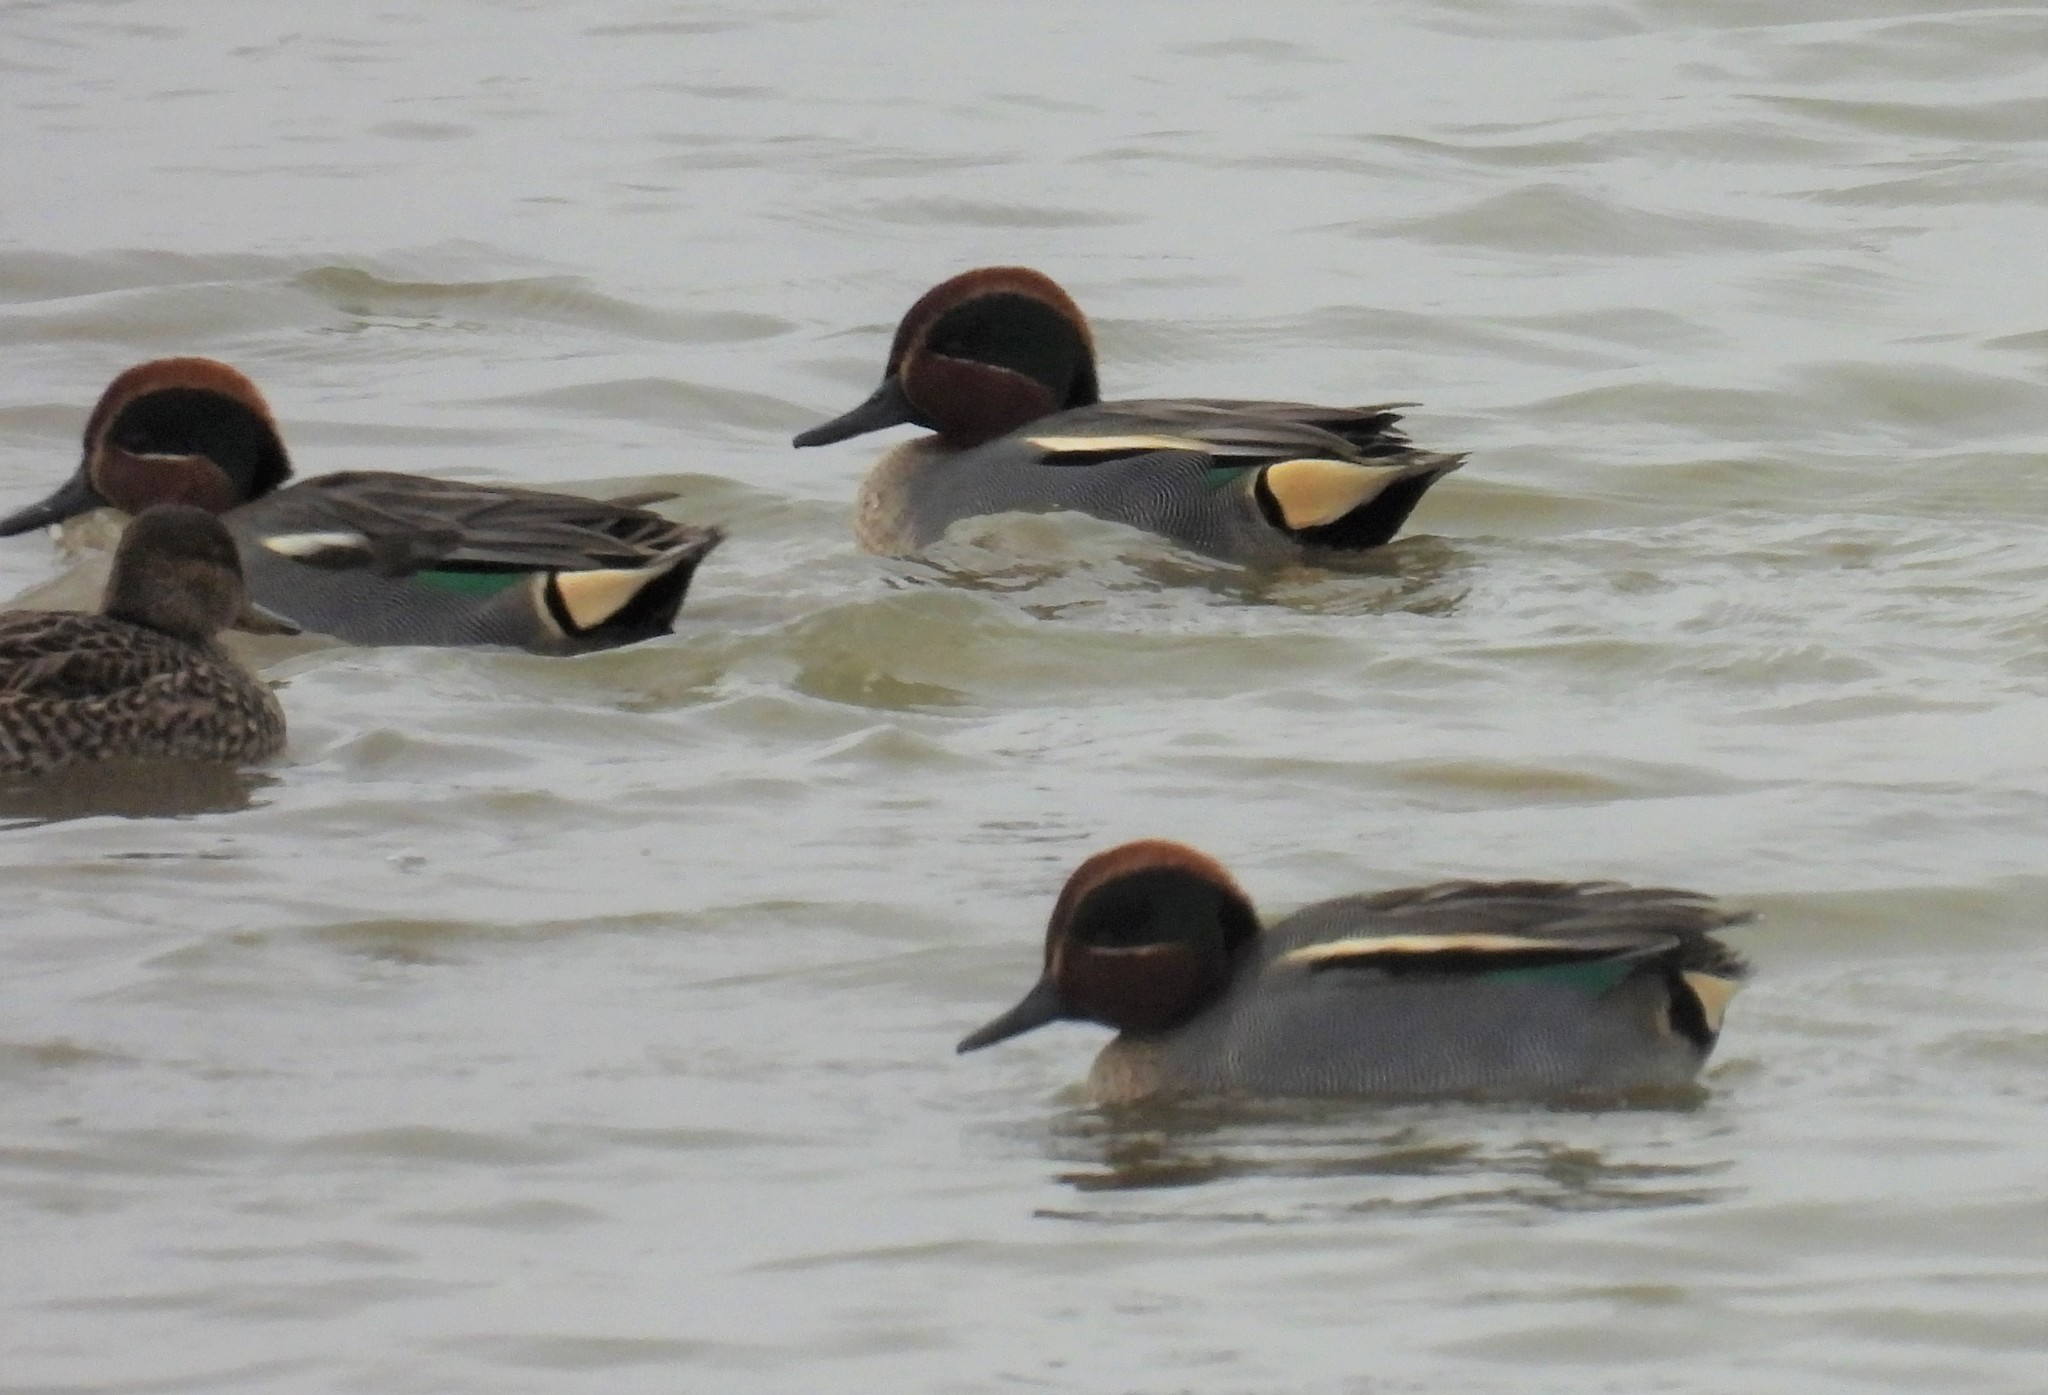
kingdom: Animalia
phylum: Chordata
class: Aves
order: Anseriformes
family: Anatidae
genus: Anas
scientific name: Anas crecca
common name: Eurasian teal
